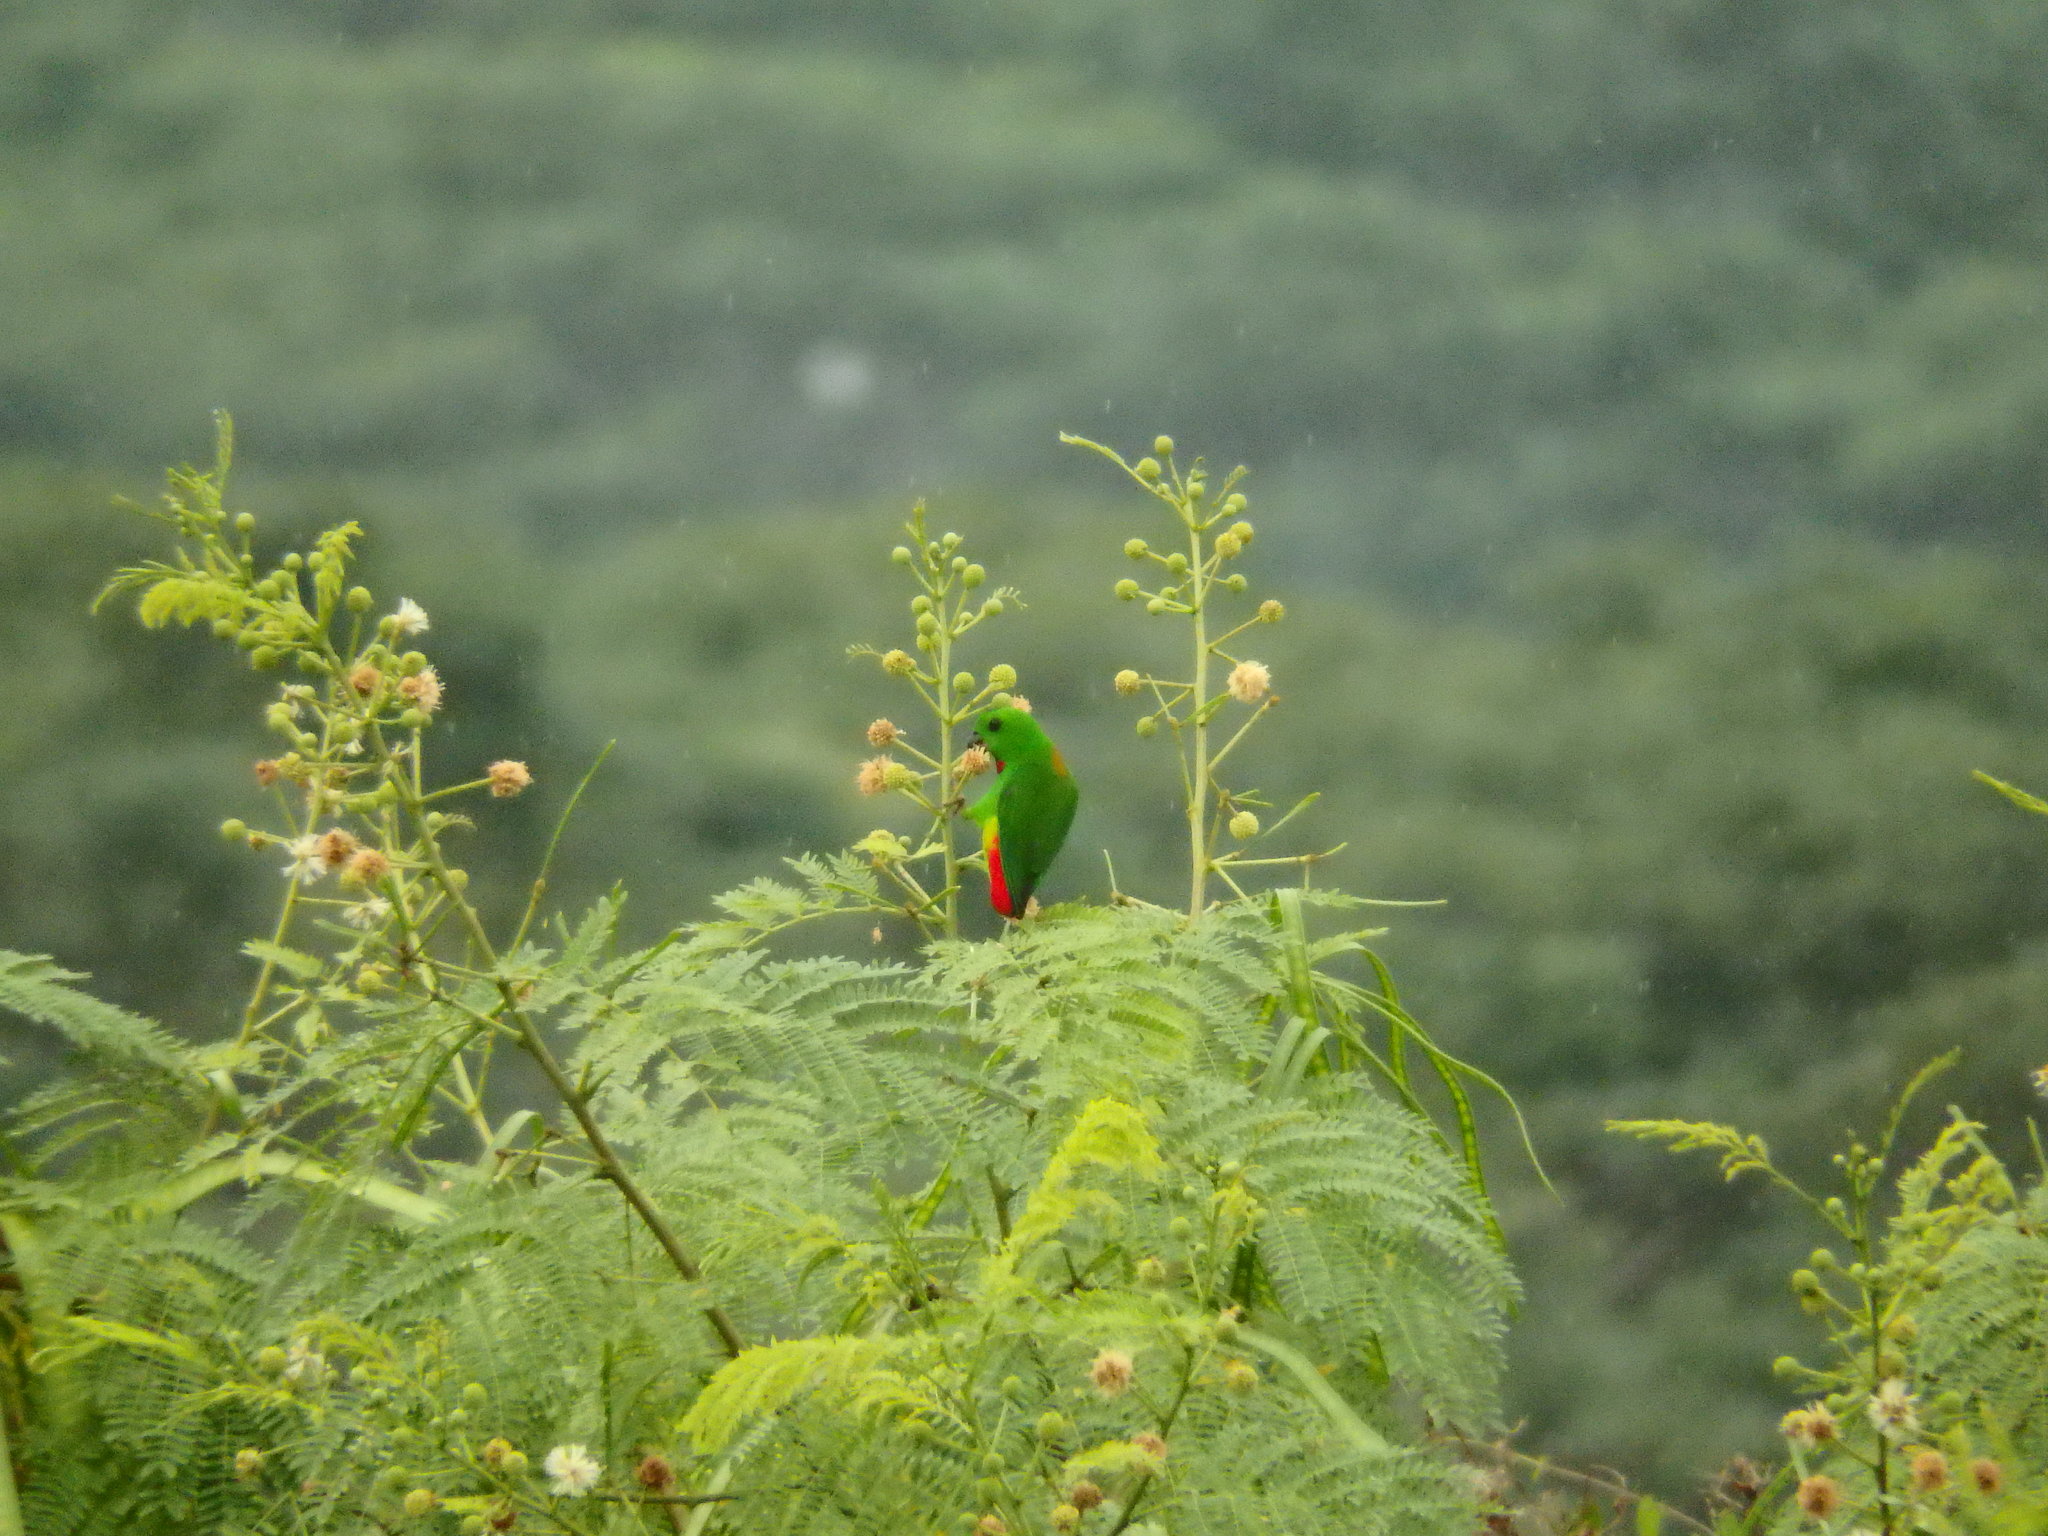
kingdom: Animalia
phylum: Chordata
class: Aves
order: Psittaciformes
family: Psittacidae
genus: Loriculus
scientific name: Loriculus galgulus
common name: Blue-crowned hanging parrot
